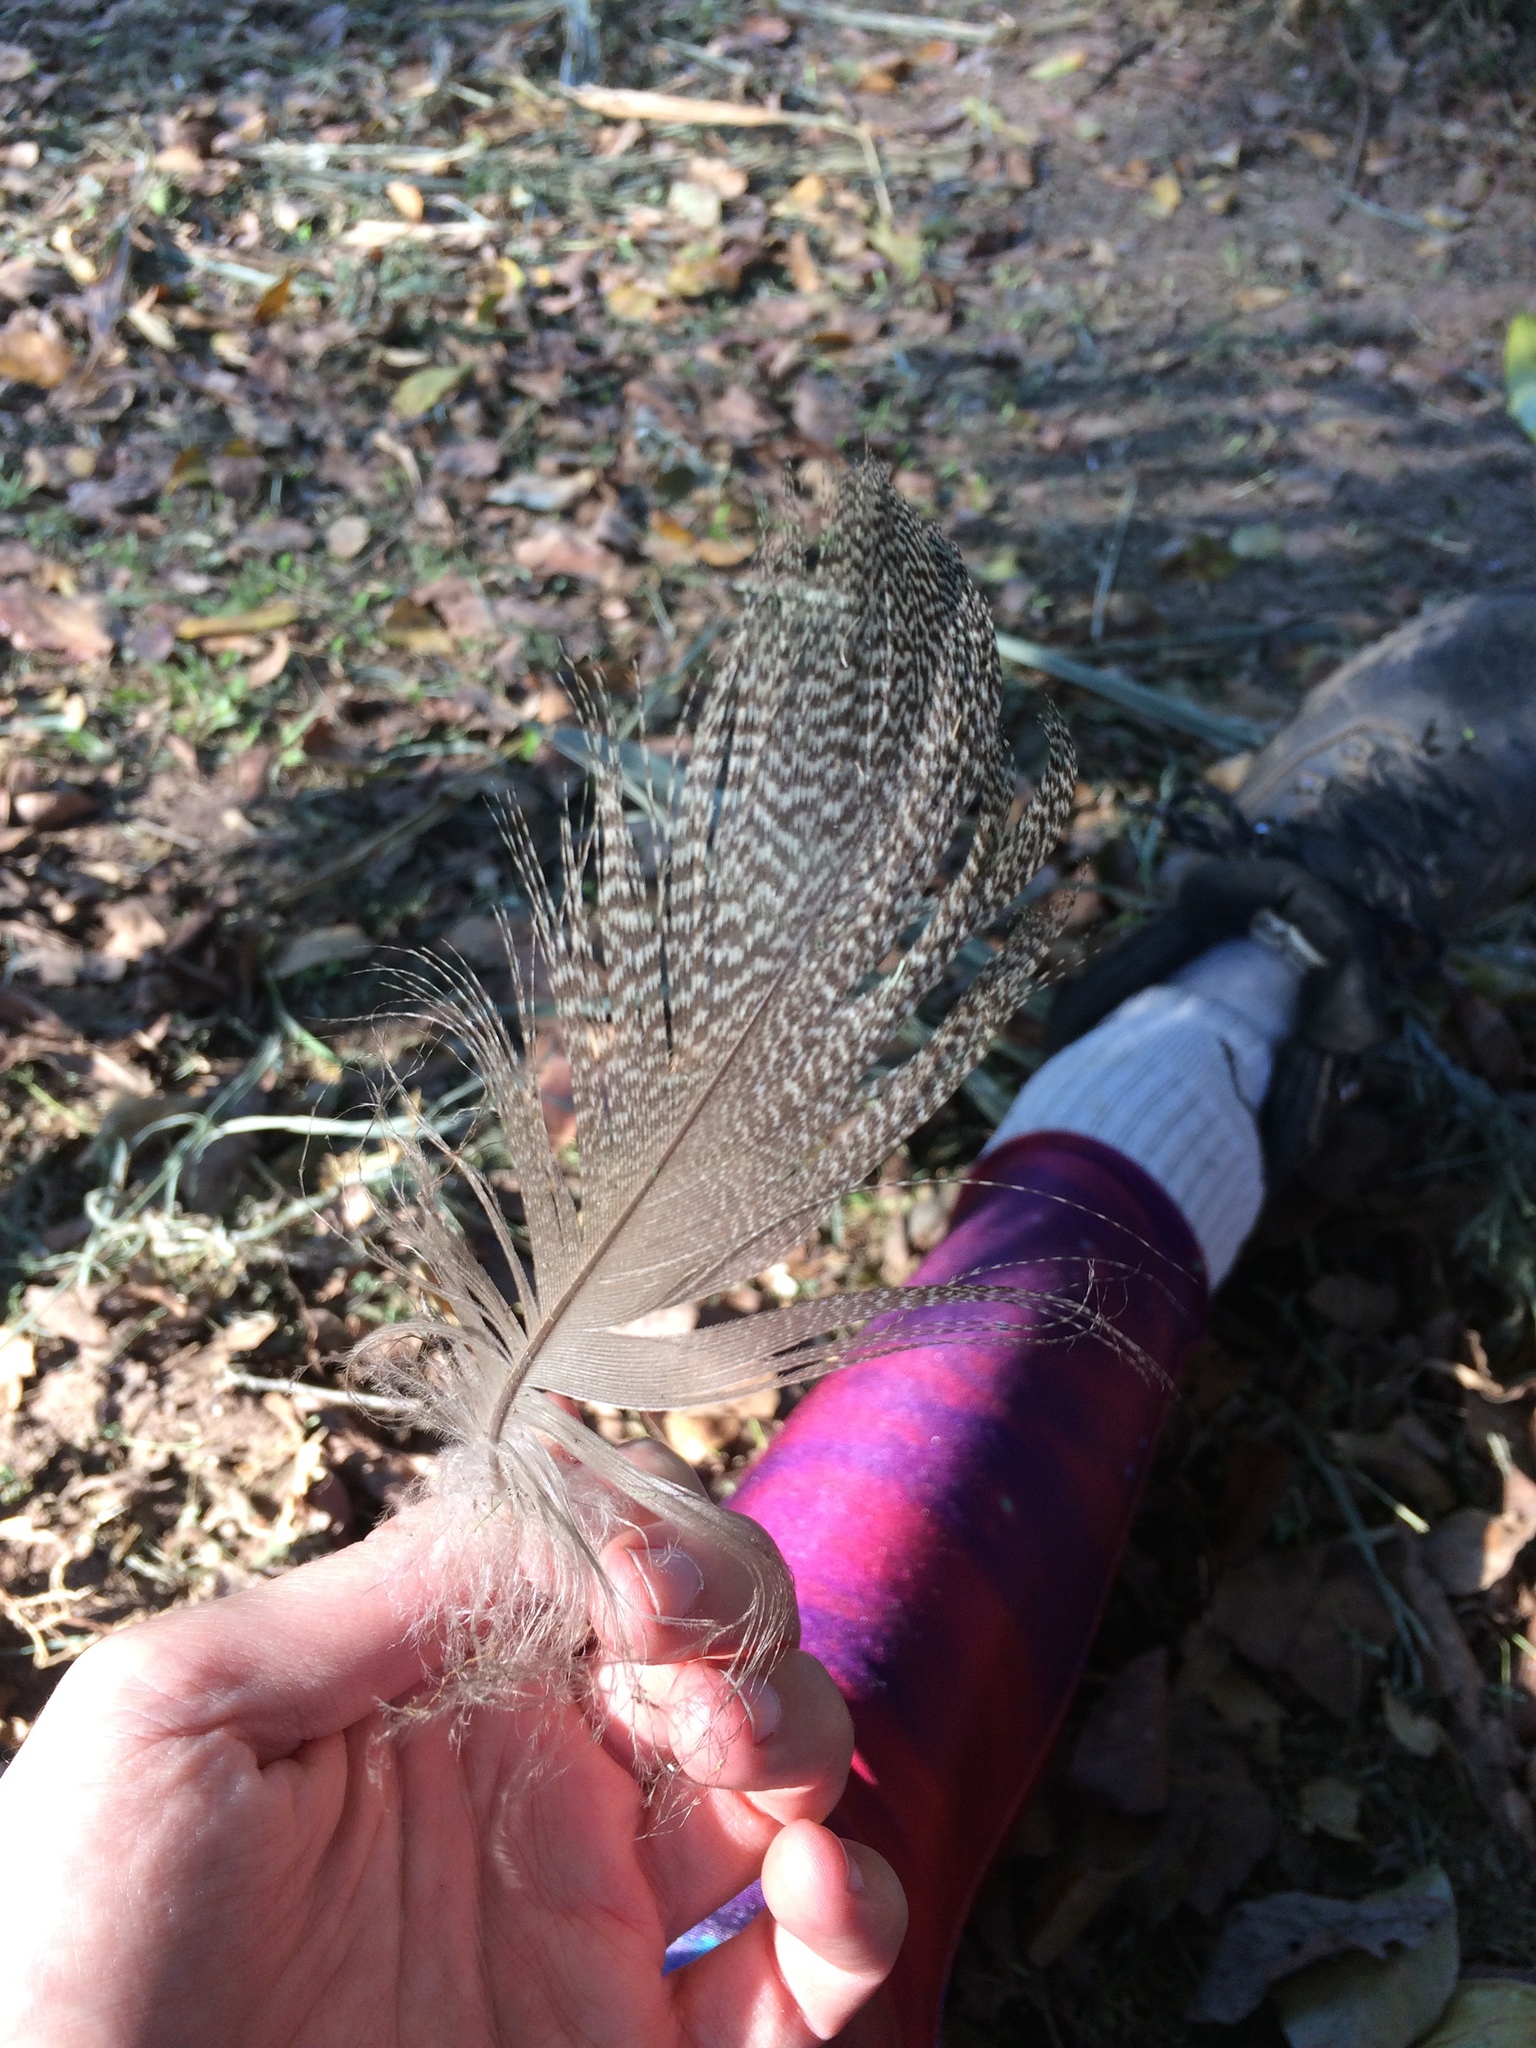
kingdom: Animalia
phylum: Chordata
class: Aves
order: Anseriformes
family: Anatidae
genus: Alopochen
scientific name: Alopochen aegyptiaca
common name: Egyptian goose
